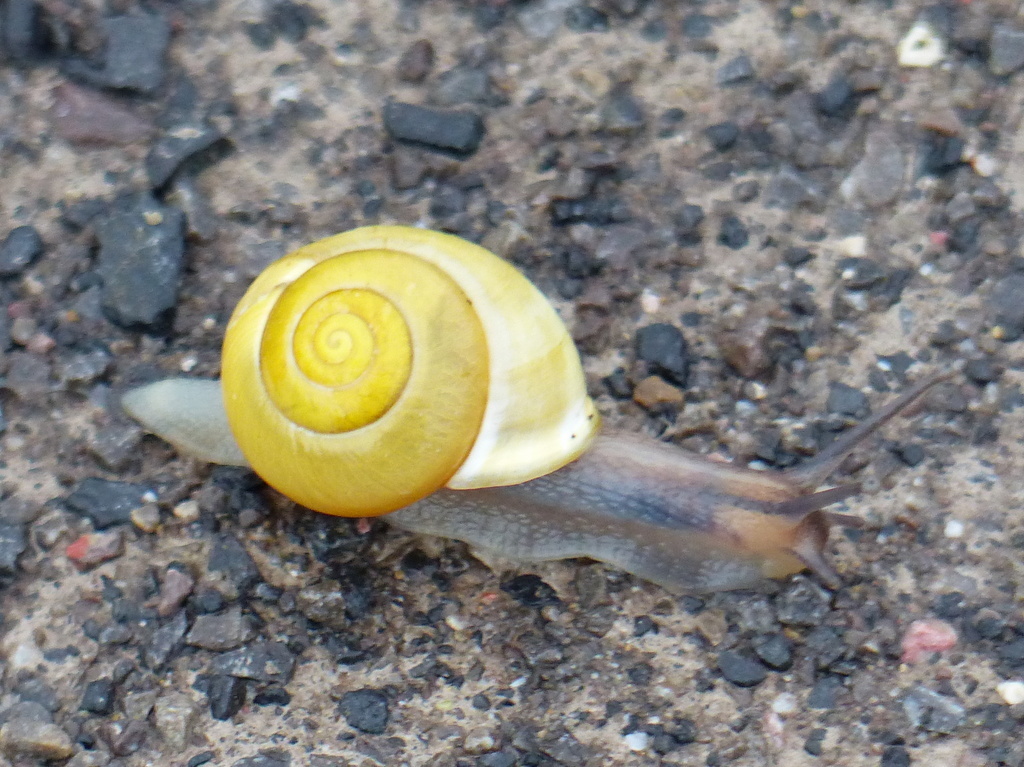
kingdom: Animalia
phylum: Mollusca
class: Gastropoda
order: Stylommatophora
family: Helicidae
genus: Cepaea
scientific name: Cepaea hortensis
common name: White-lip gardensnail
